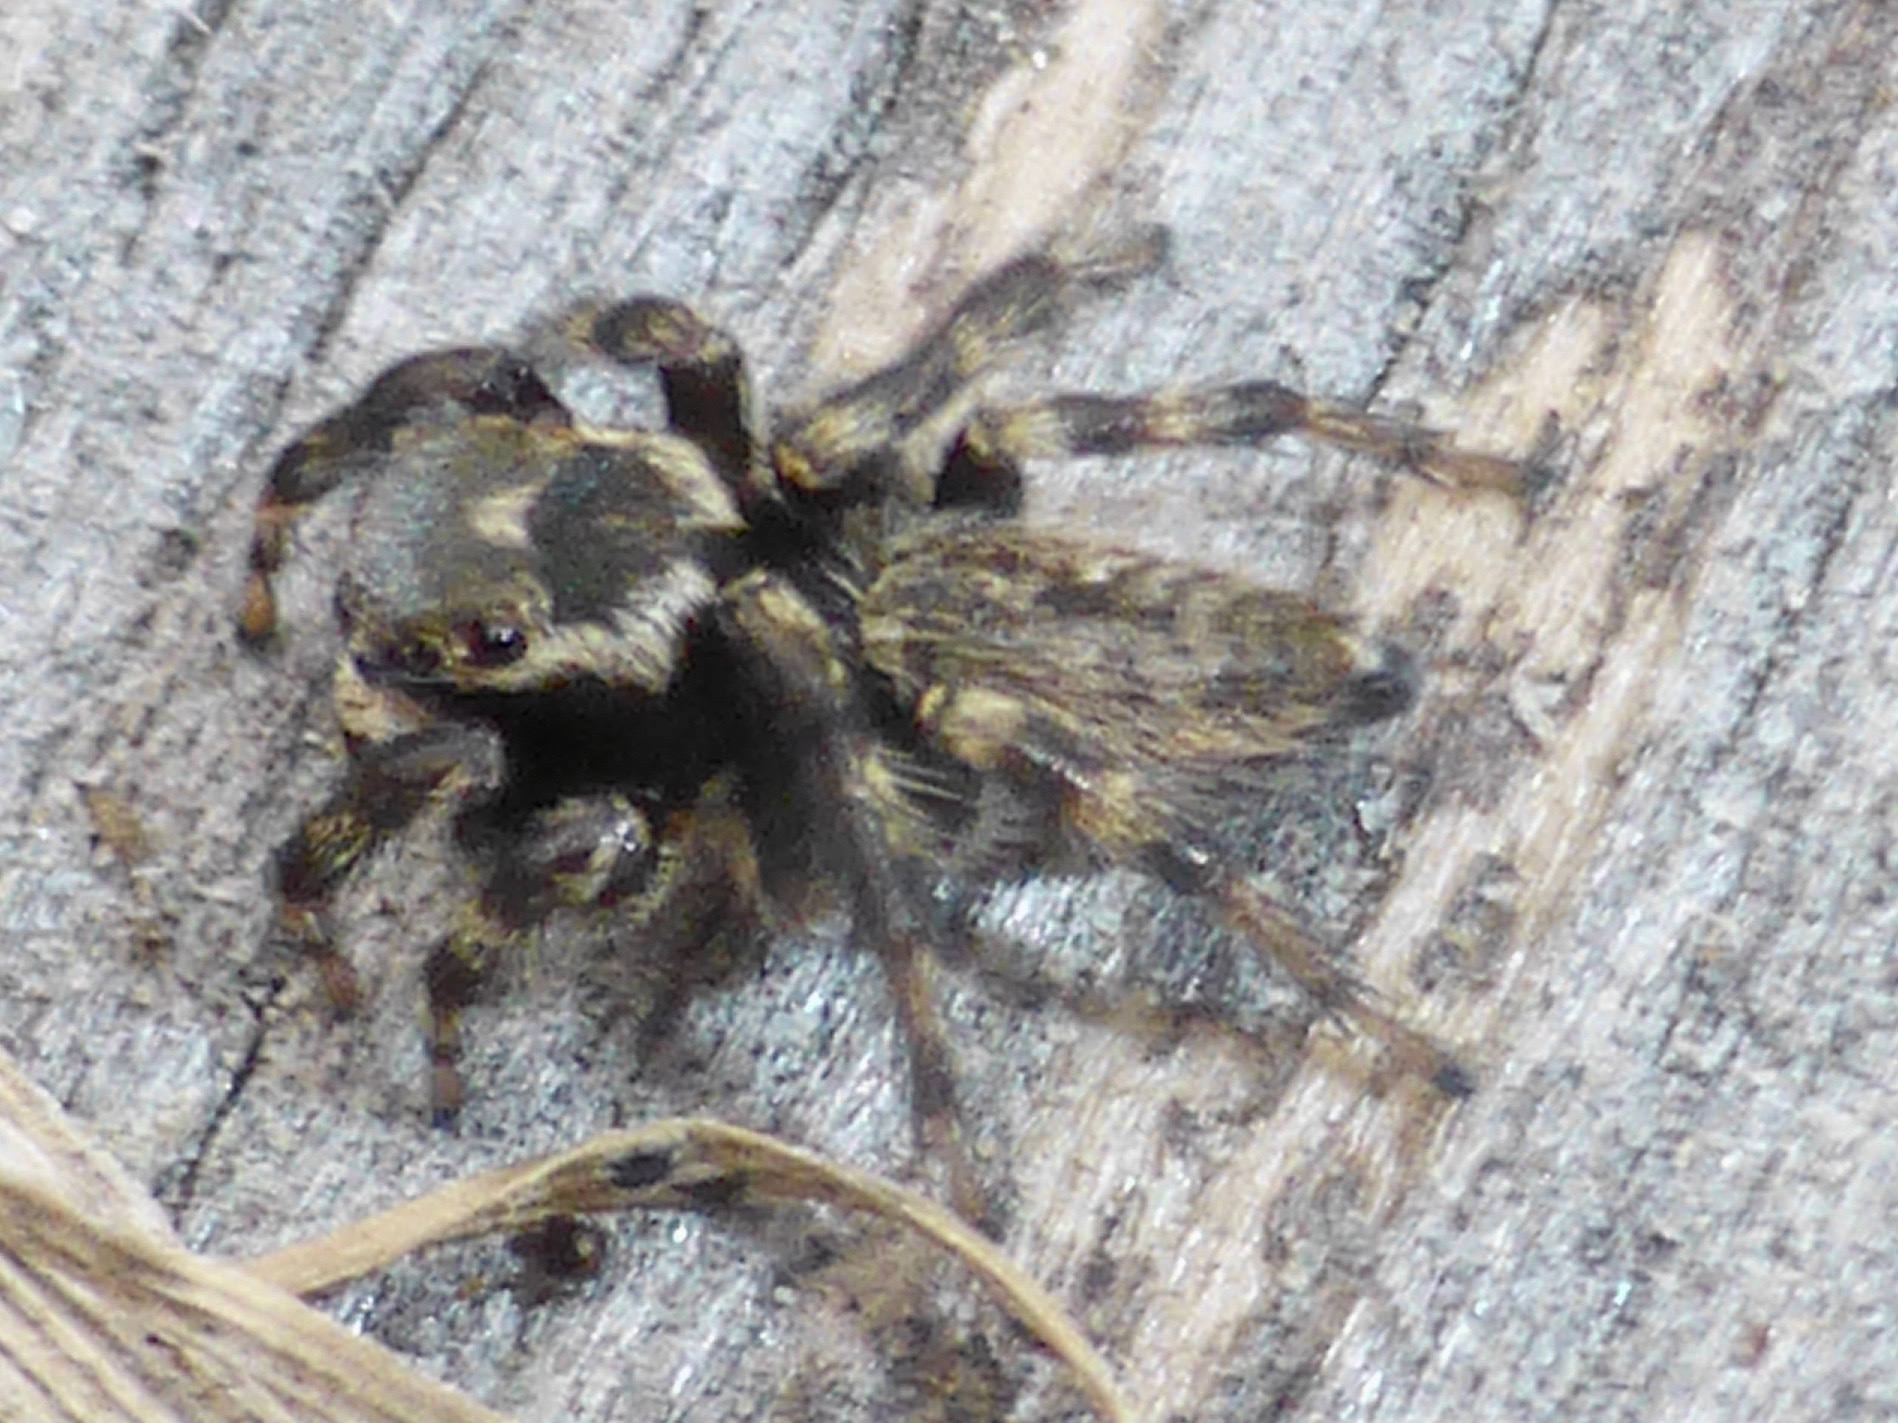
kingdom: Animalia
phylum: Arthropoda
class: Arachnida
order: Araneae
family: Salticidae
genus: Maratus
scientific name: Maratus griseus
